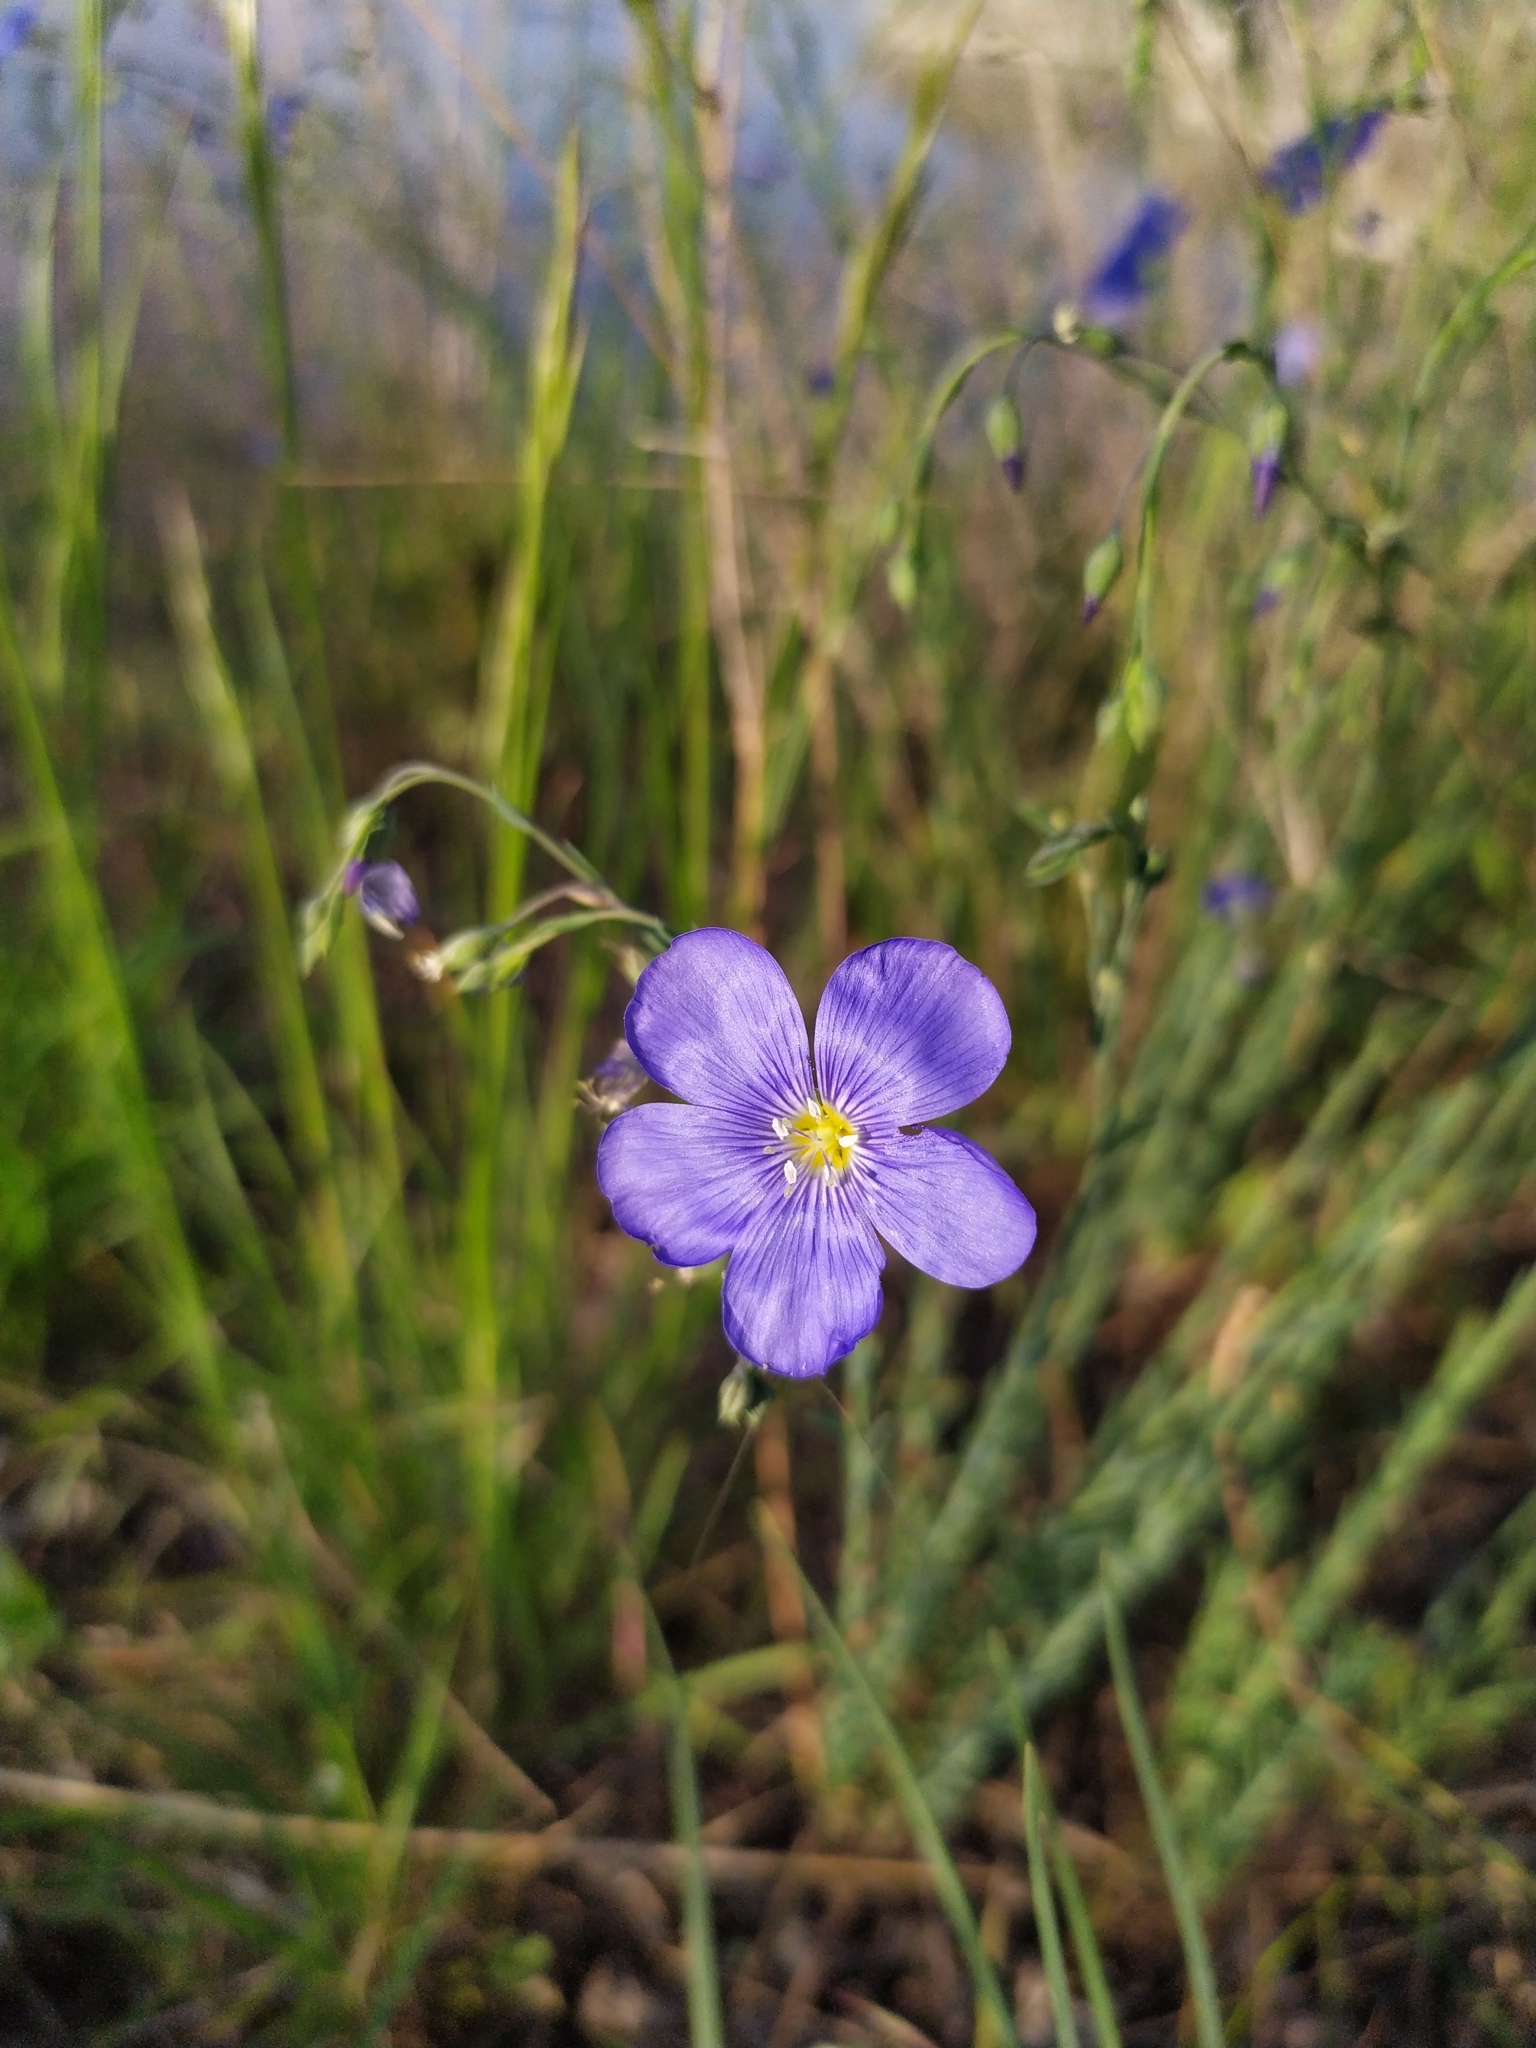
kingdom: Plantae
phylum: Tracheophyta
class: Magnoliopsida
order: Malpighiales
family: Linaceae
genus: Linum
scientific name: Linum austriacum
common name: Austrian flax
